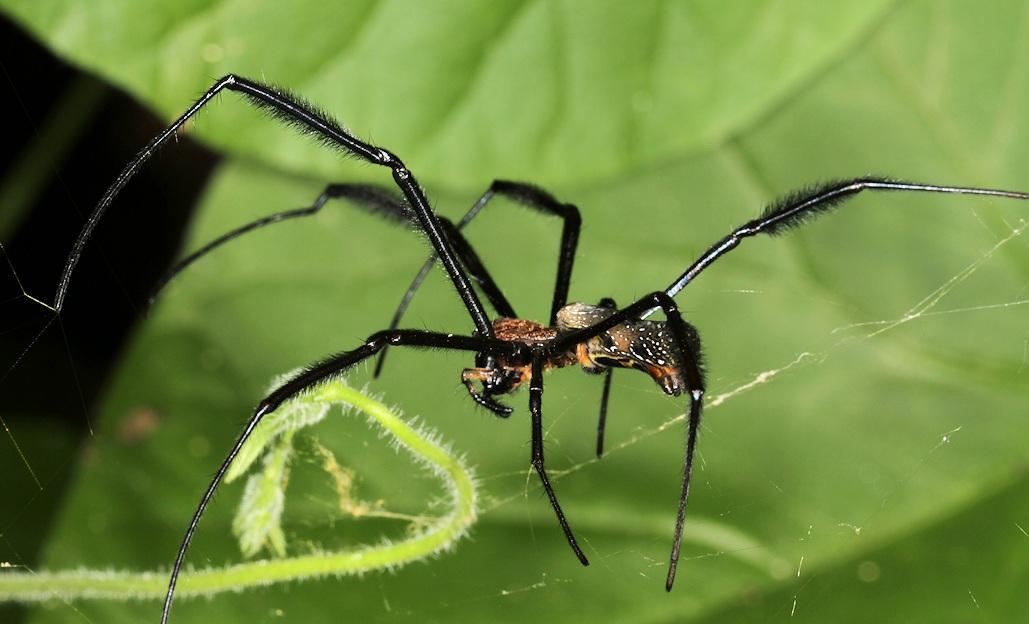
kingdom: Animalia
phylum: Arthropoda
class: Arachnida
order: Araneae
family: Araneidae
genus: Trichonephila
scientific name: Trichonephila fenestrata
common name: Hairy golden orb weaver
